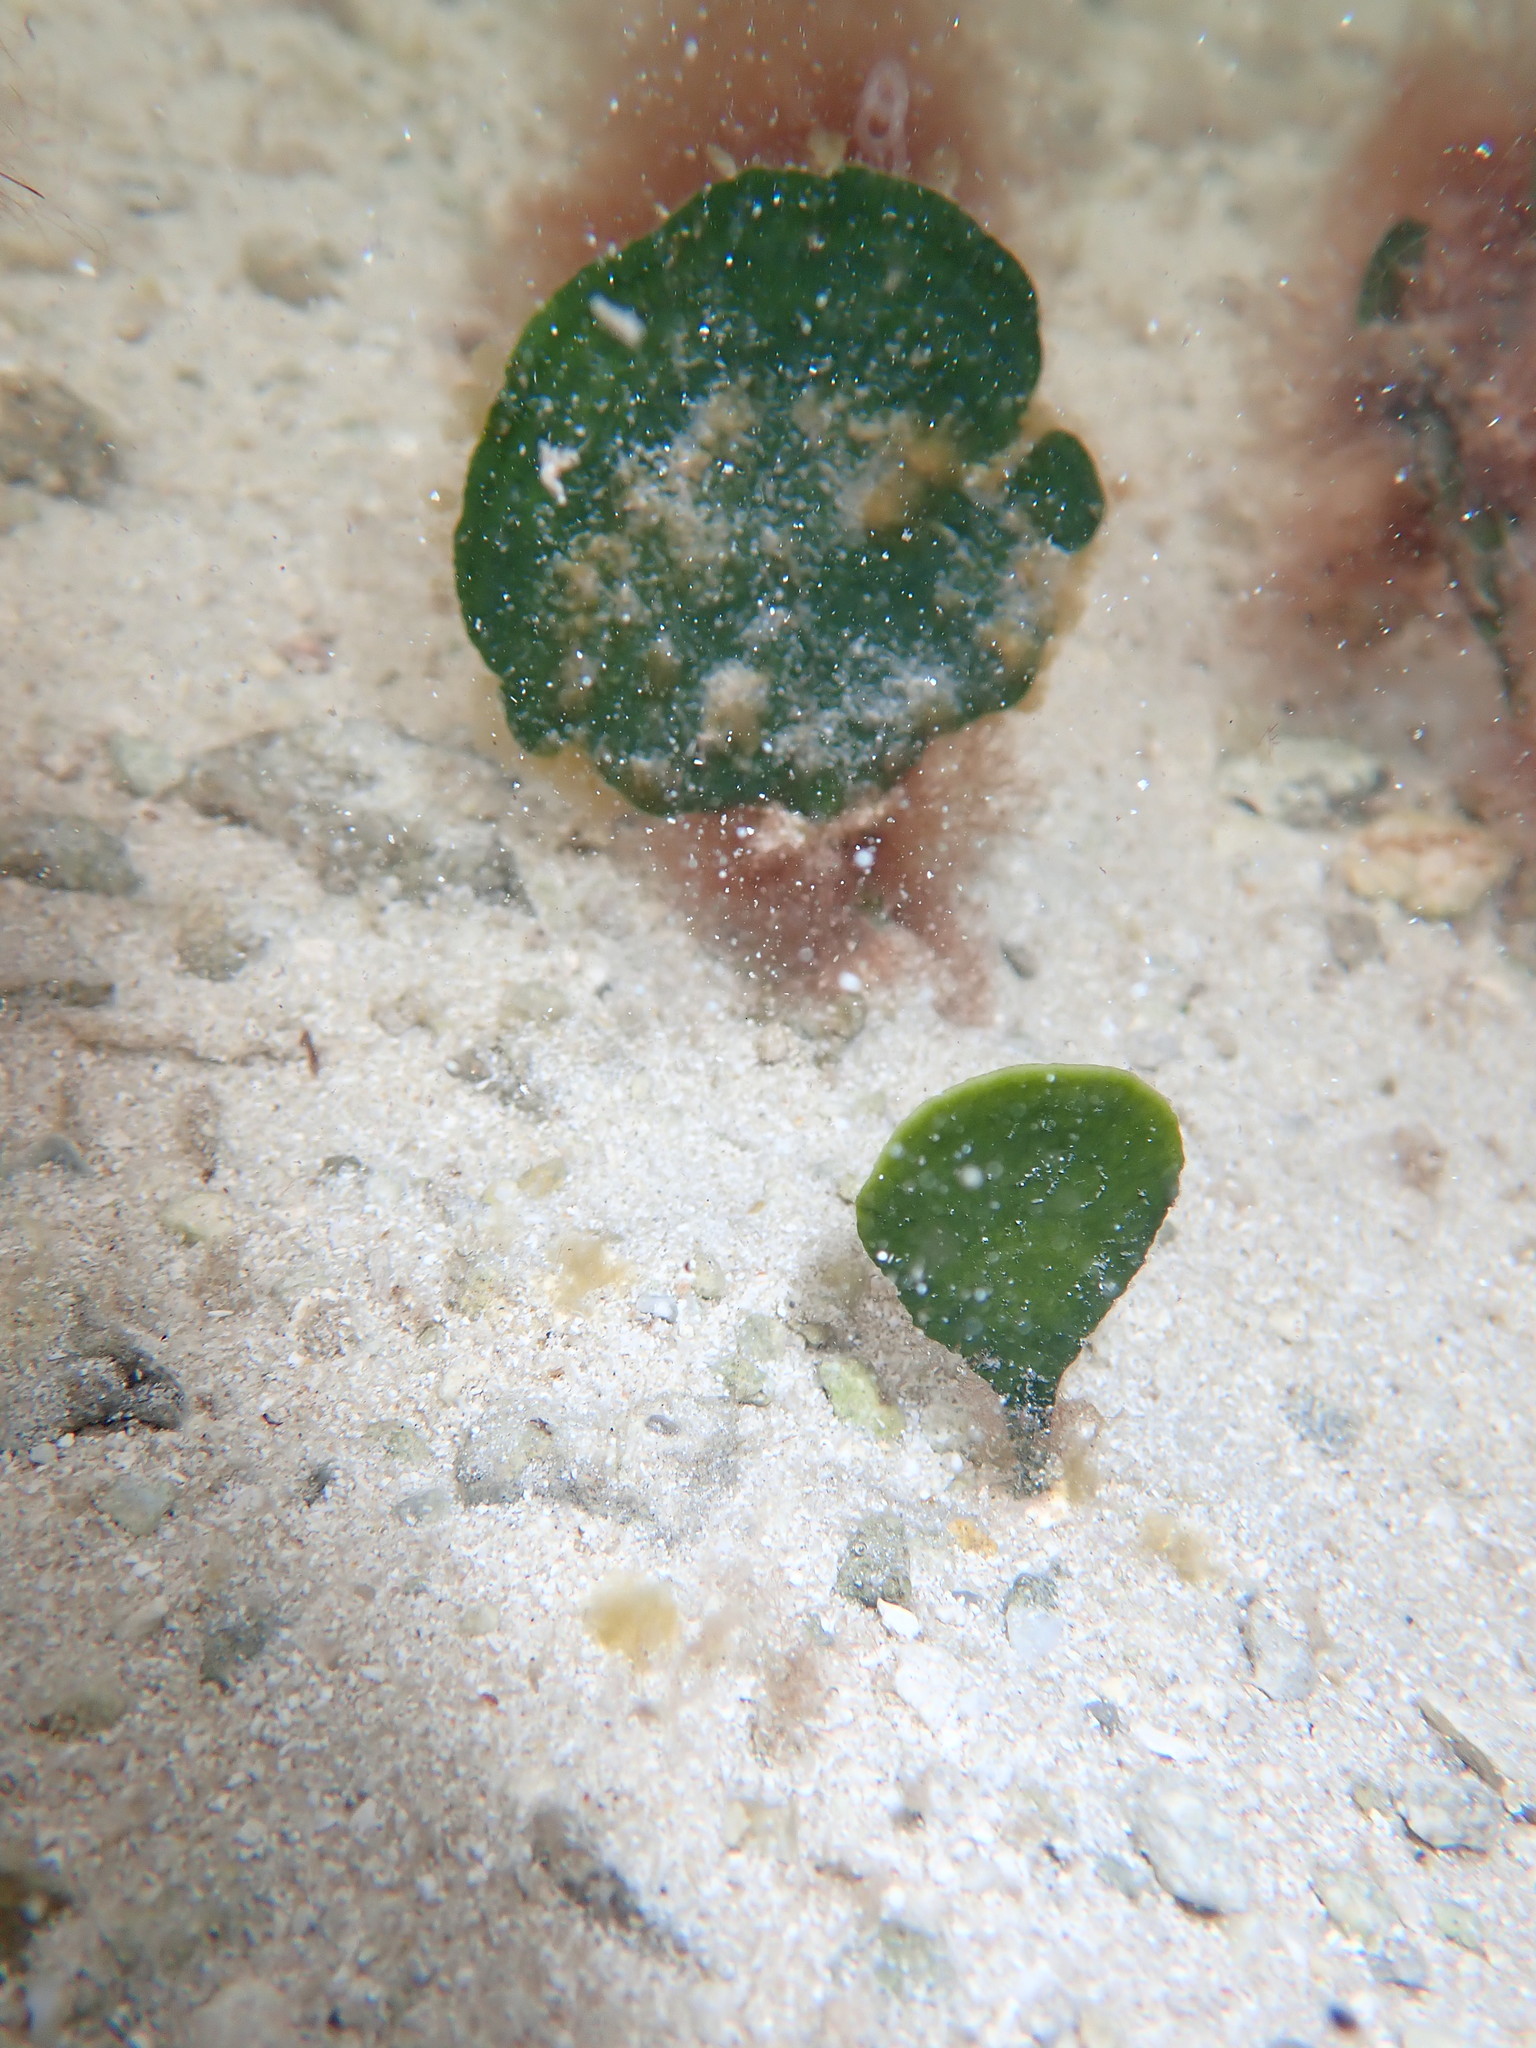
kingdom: Plantae
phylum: Chlorophyta
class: Ulvophyceae
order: Bryopsidales
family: Udoteaceae
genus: Udotea
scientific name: Udotea flabellum
